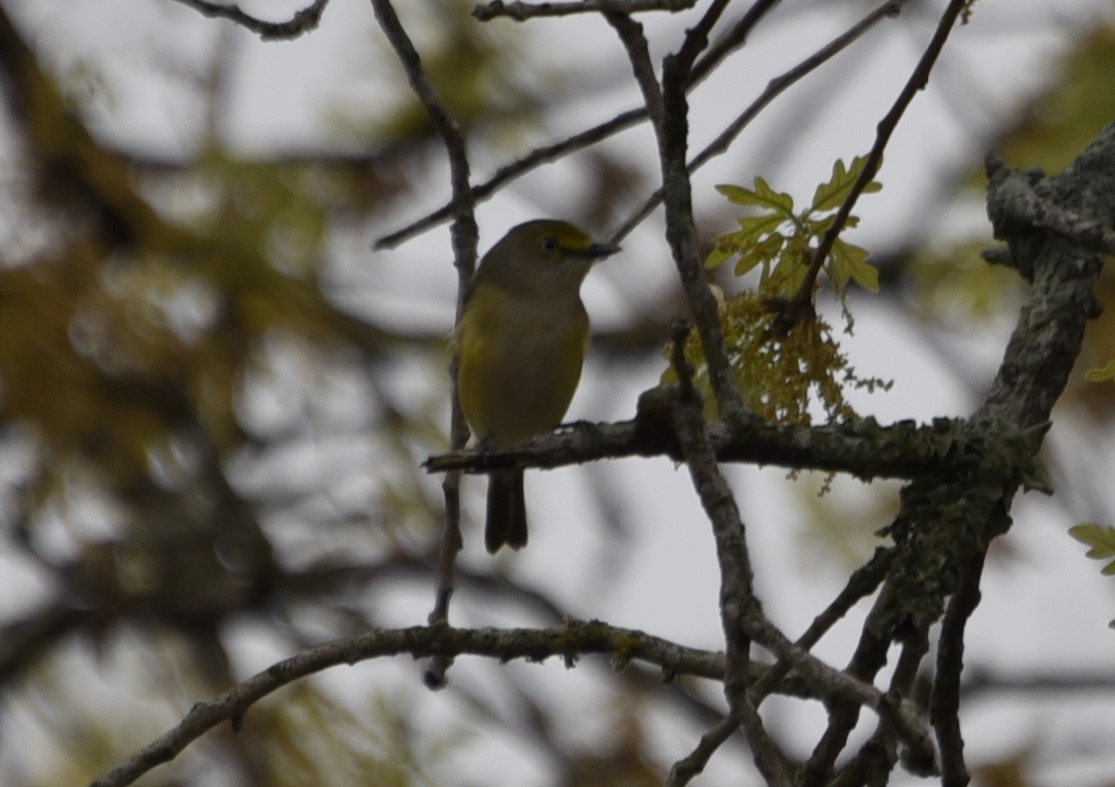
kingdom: Animalia
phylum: Chordata
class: Aves
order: Passeriformes
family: Vireonidae
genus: Vireo
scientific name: Vireo griseus
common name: White-eyed vireo
